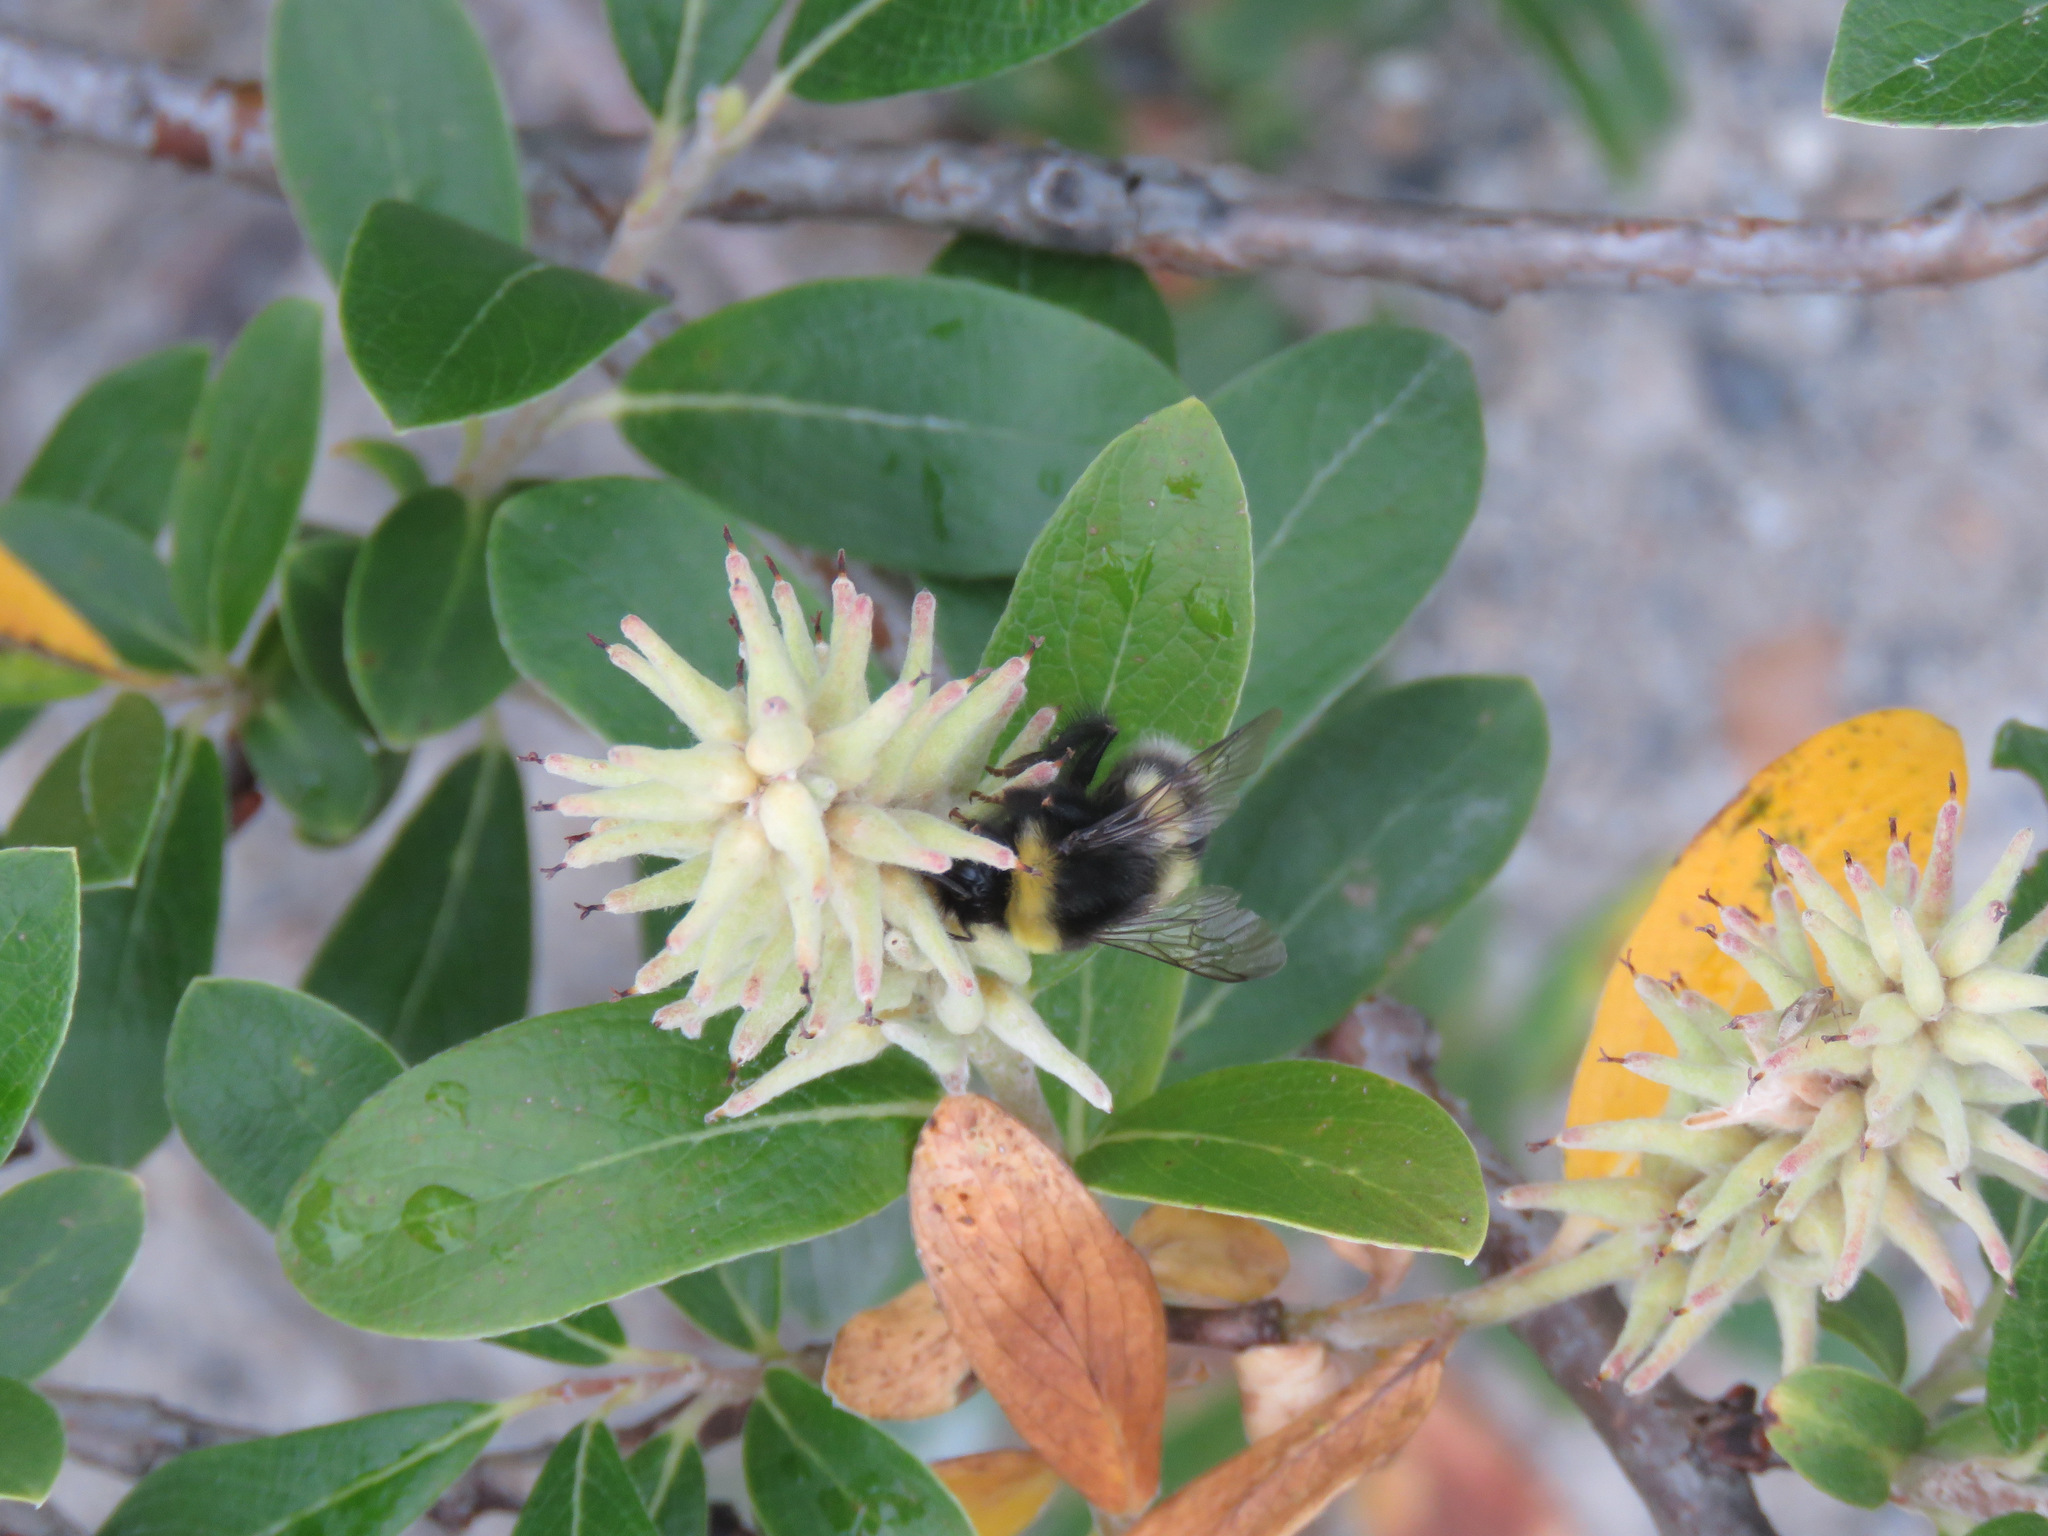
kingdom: Animalia
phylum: Arthropoda
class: Insecta
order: Hymenoptera
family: Apidae
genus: Bombus
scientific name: Bombus cryptarum
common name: Cryptic bumblebee
